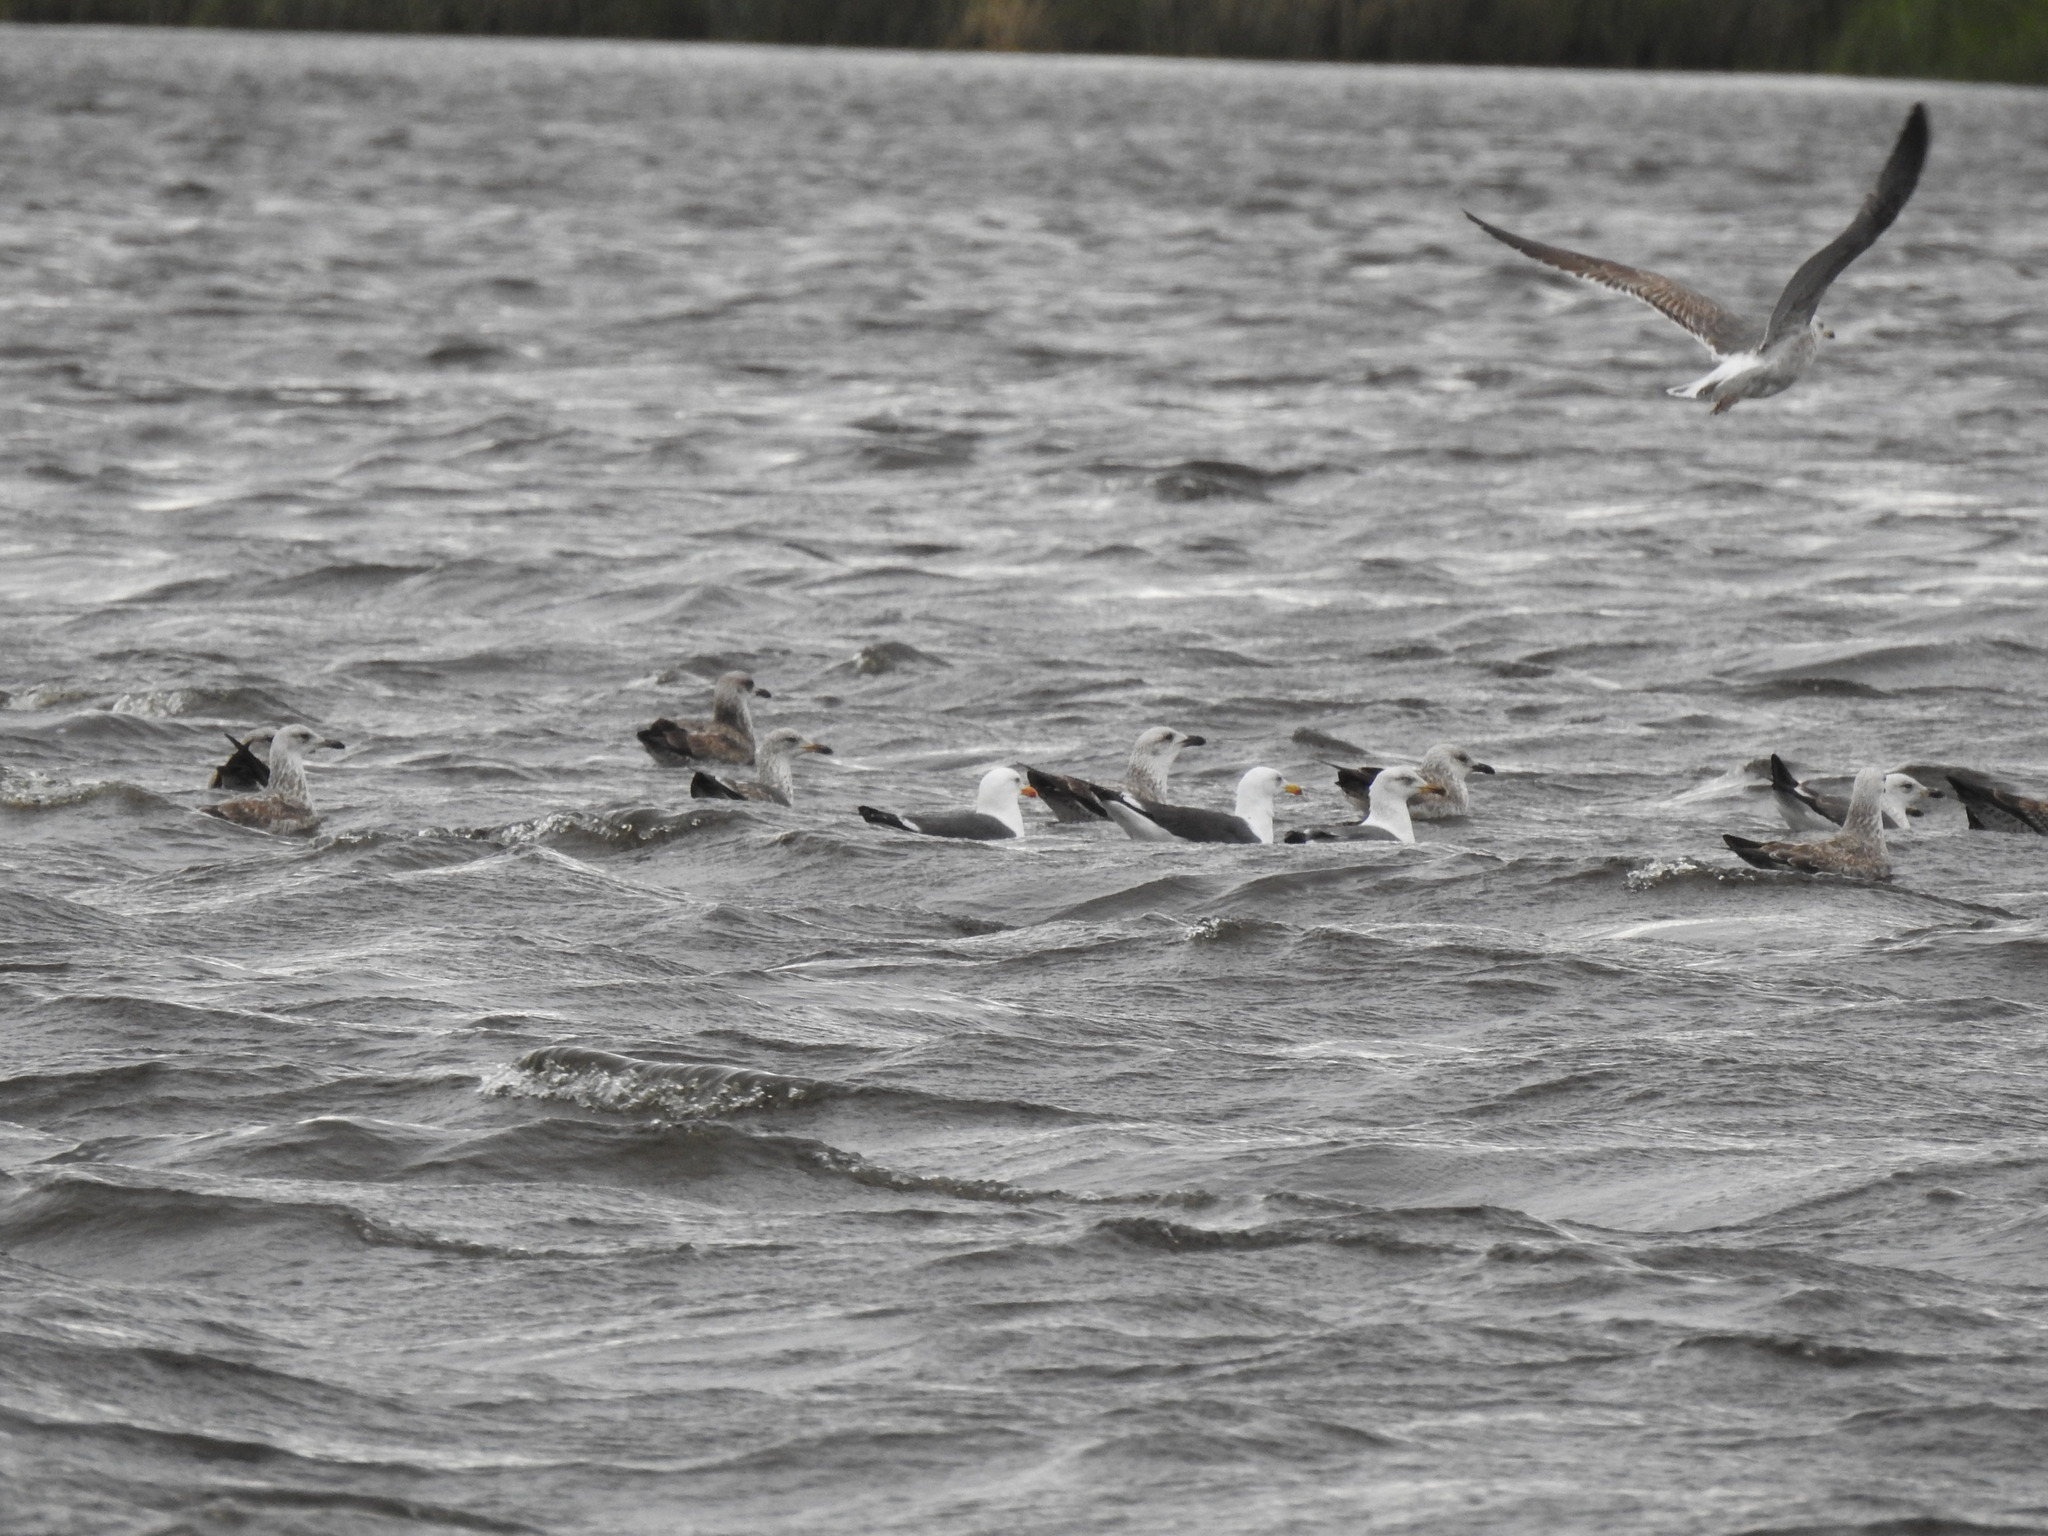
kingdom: Animalia
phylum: Chordata
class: Aves
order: Charadriiformes
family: Laridae
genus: Larus
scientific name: Larus fuscus
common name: Lesser black-backed gull
